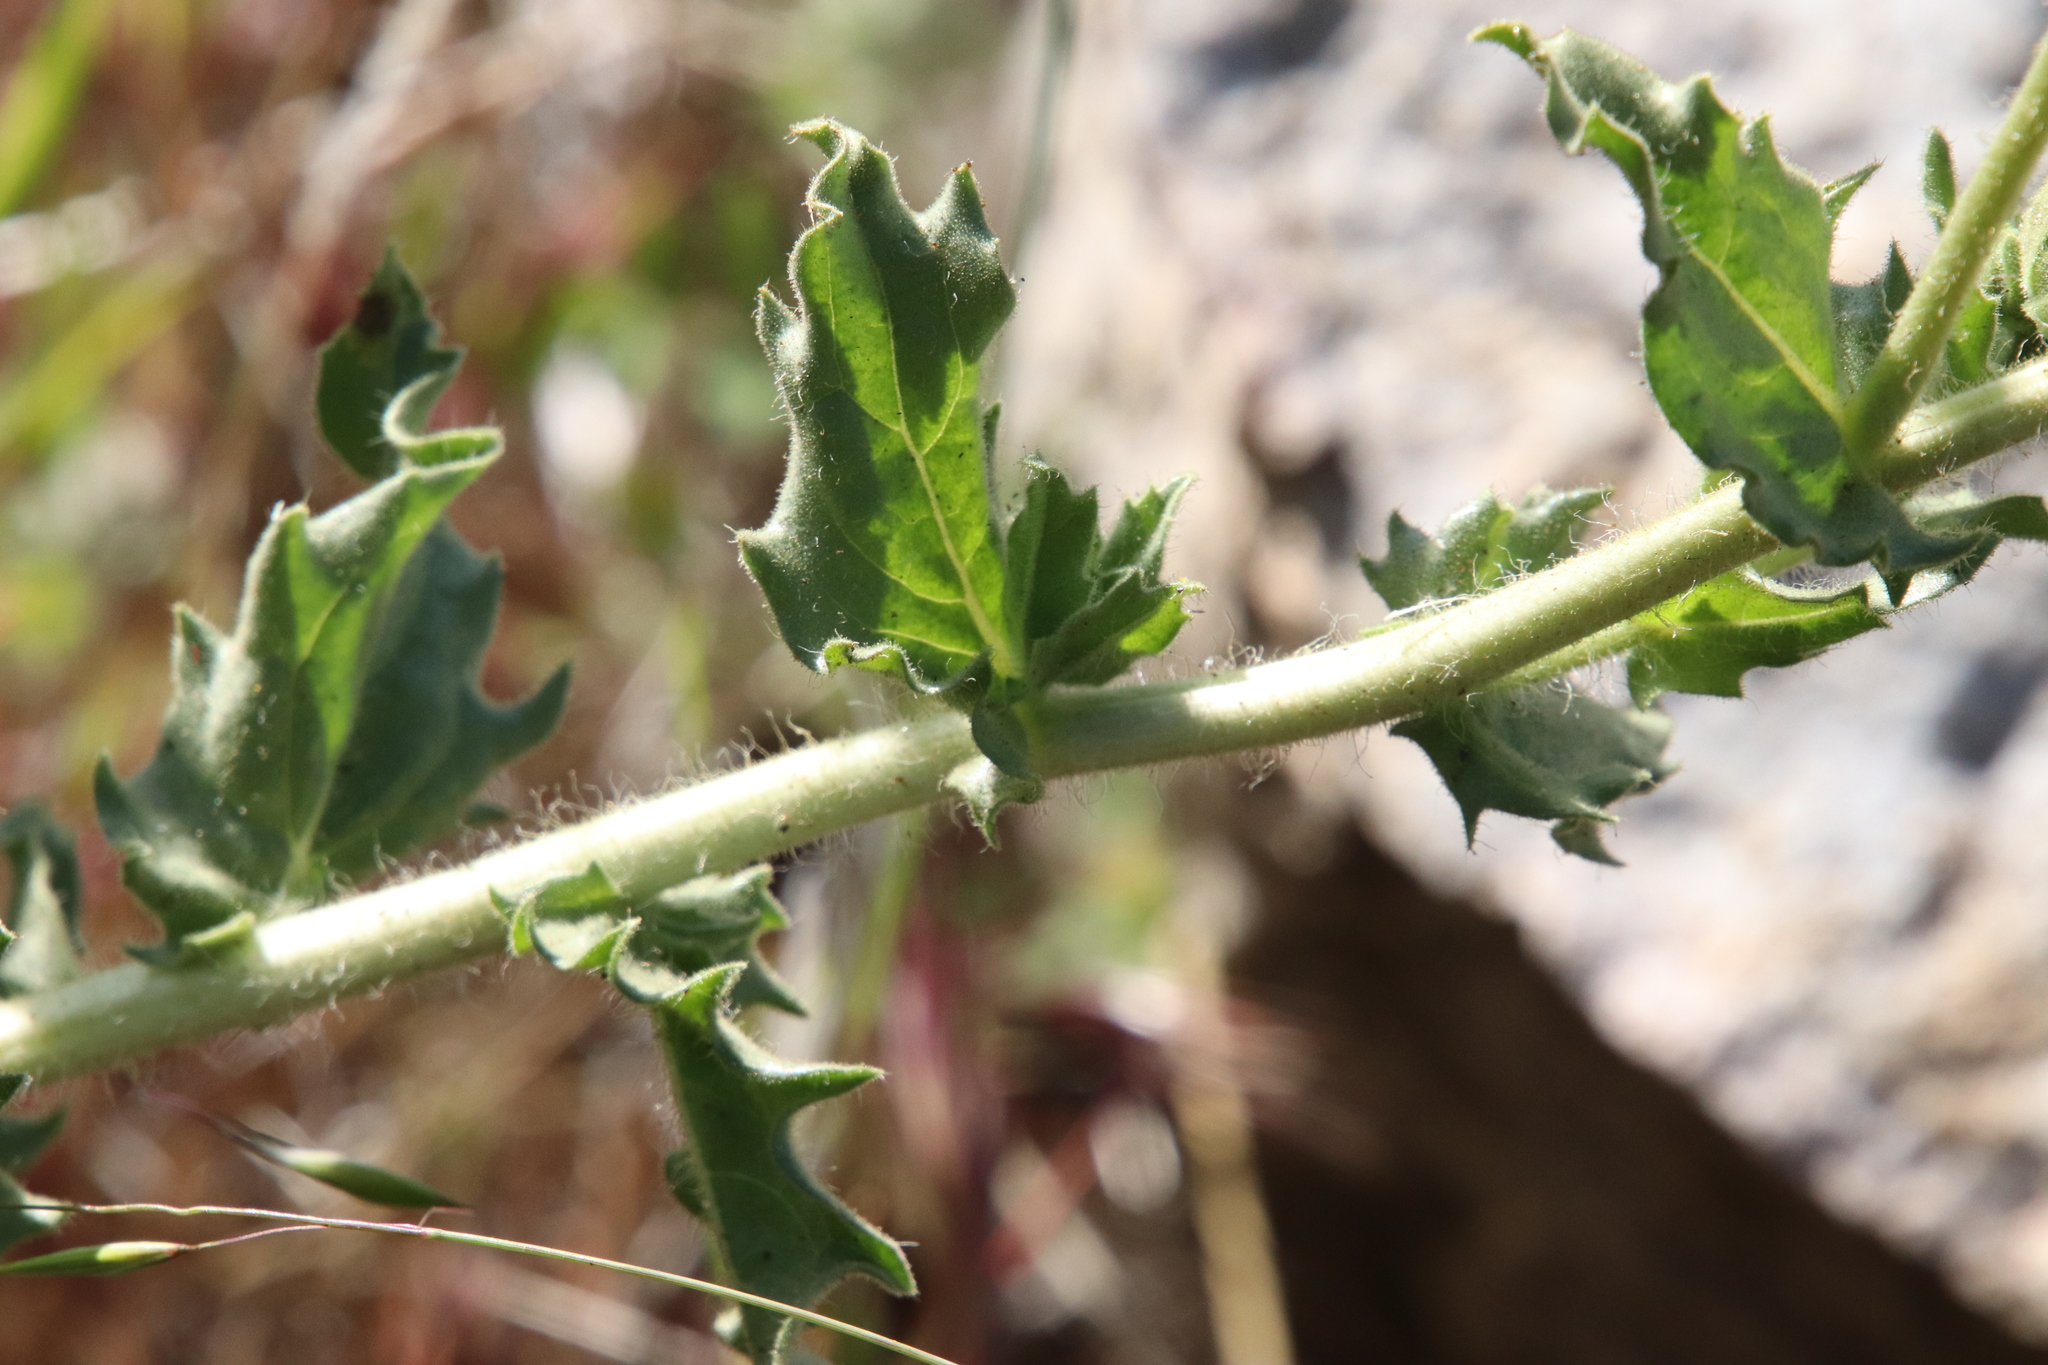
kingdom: Plantae
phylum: Tracheophyta
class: Magnoliopsida
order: Asterales
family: Asteraceae
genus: Geraea
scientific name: Geraea viscida
